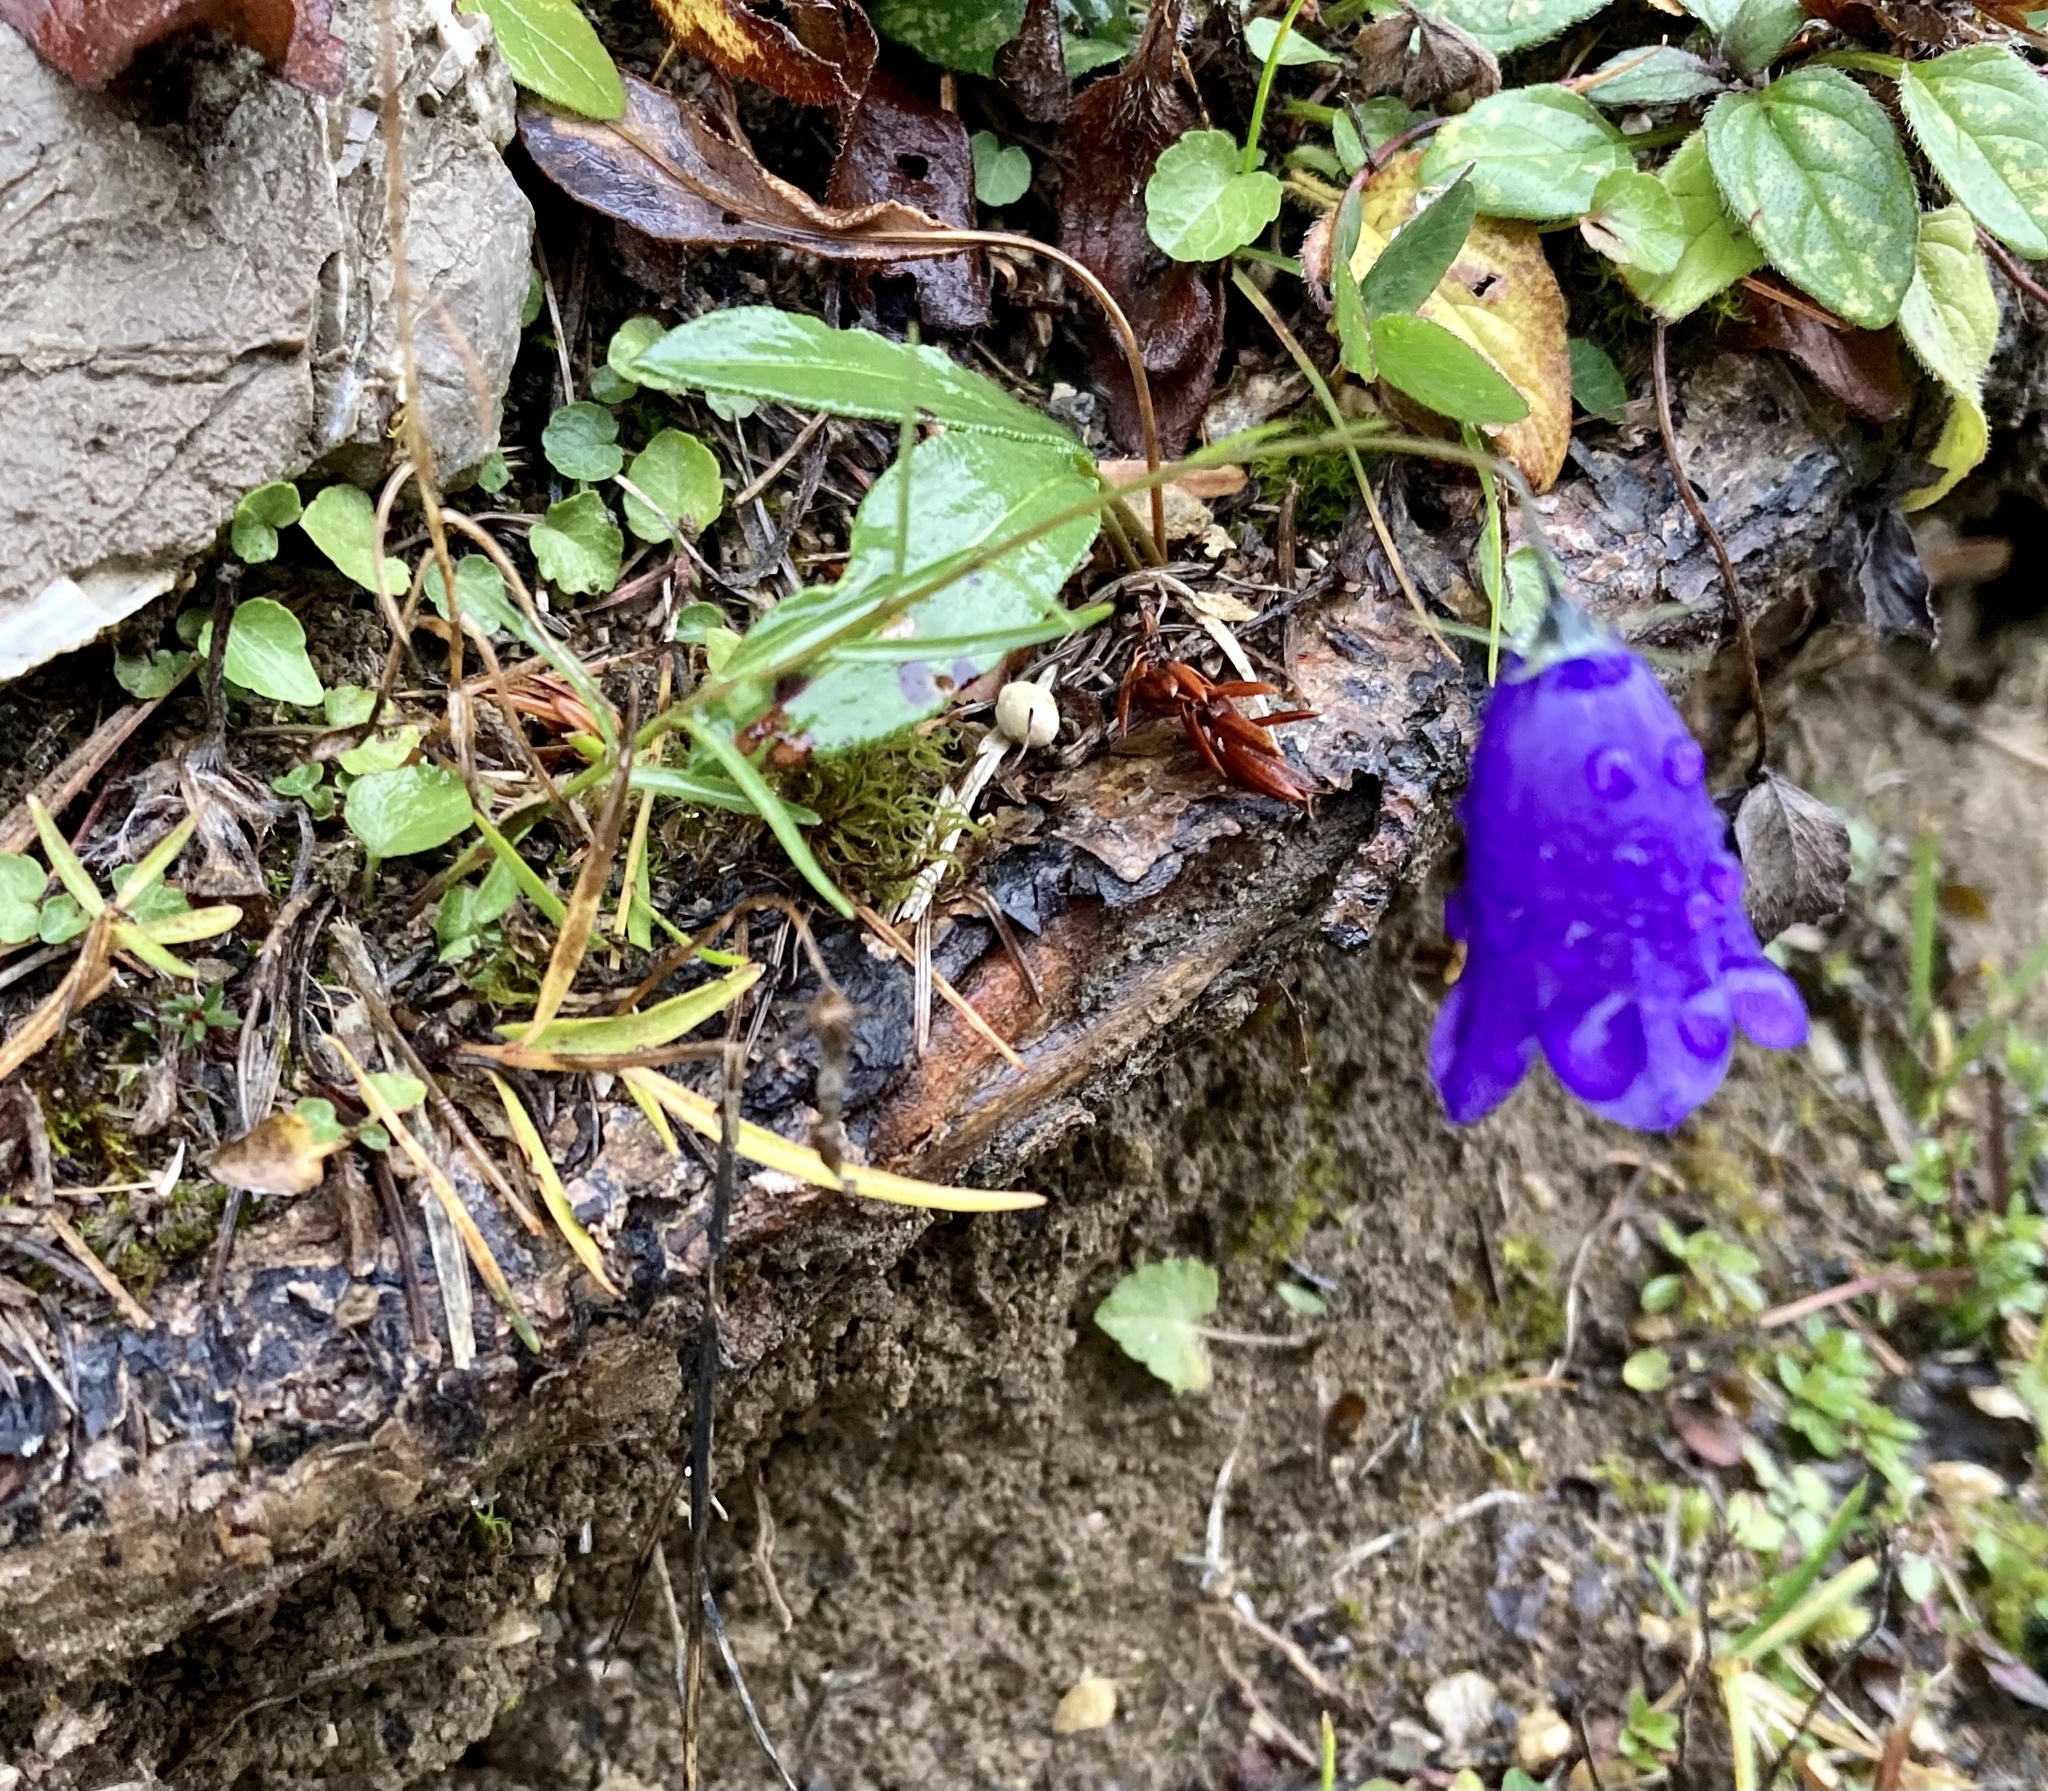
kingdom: Plantae
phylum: Tracheophyta
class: Magnoliopsida
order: Asterales
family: Campanulaceae
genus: Campanula
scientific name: Campanula scheuchzeri
